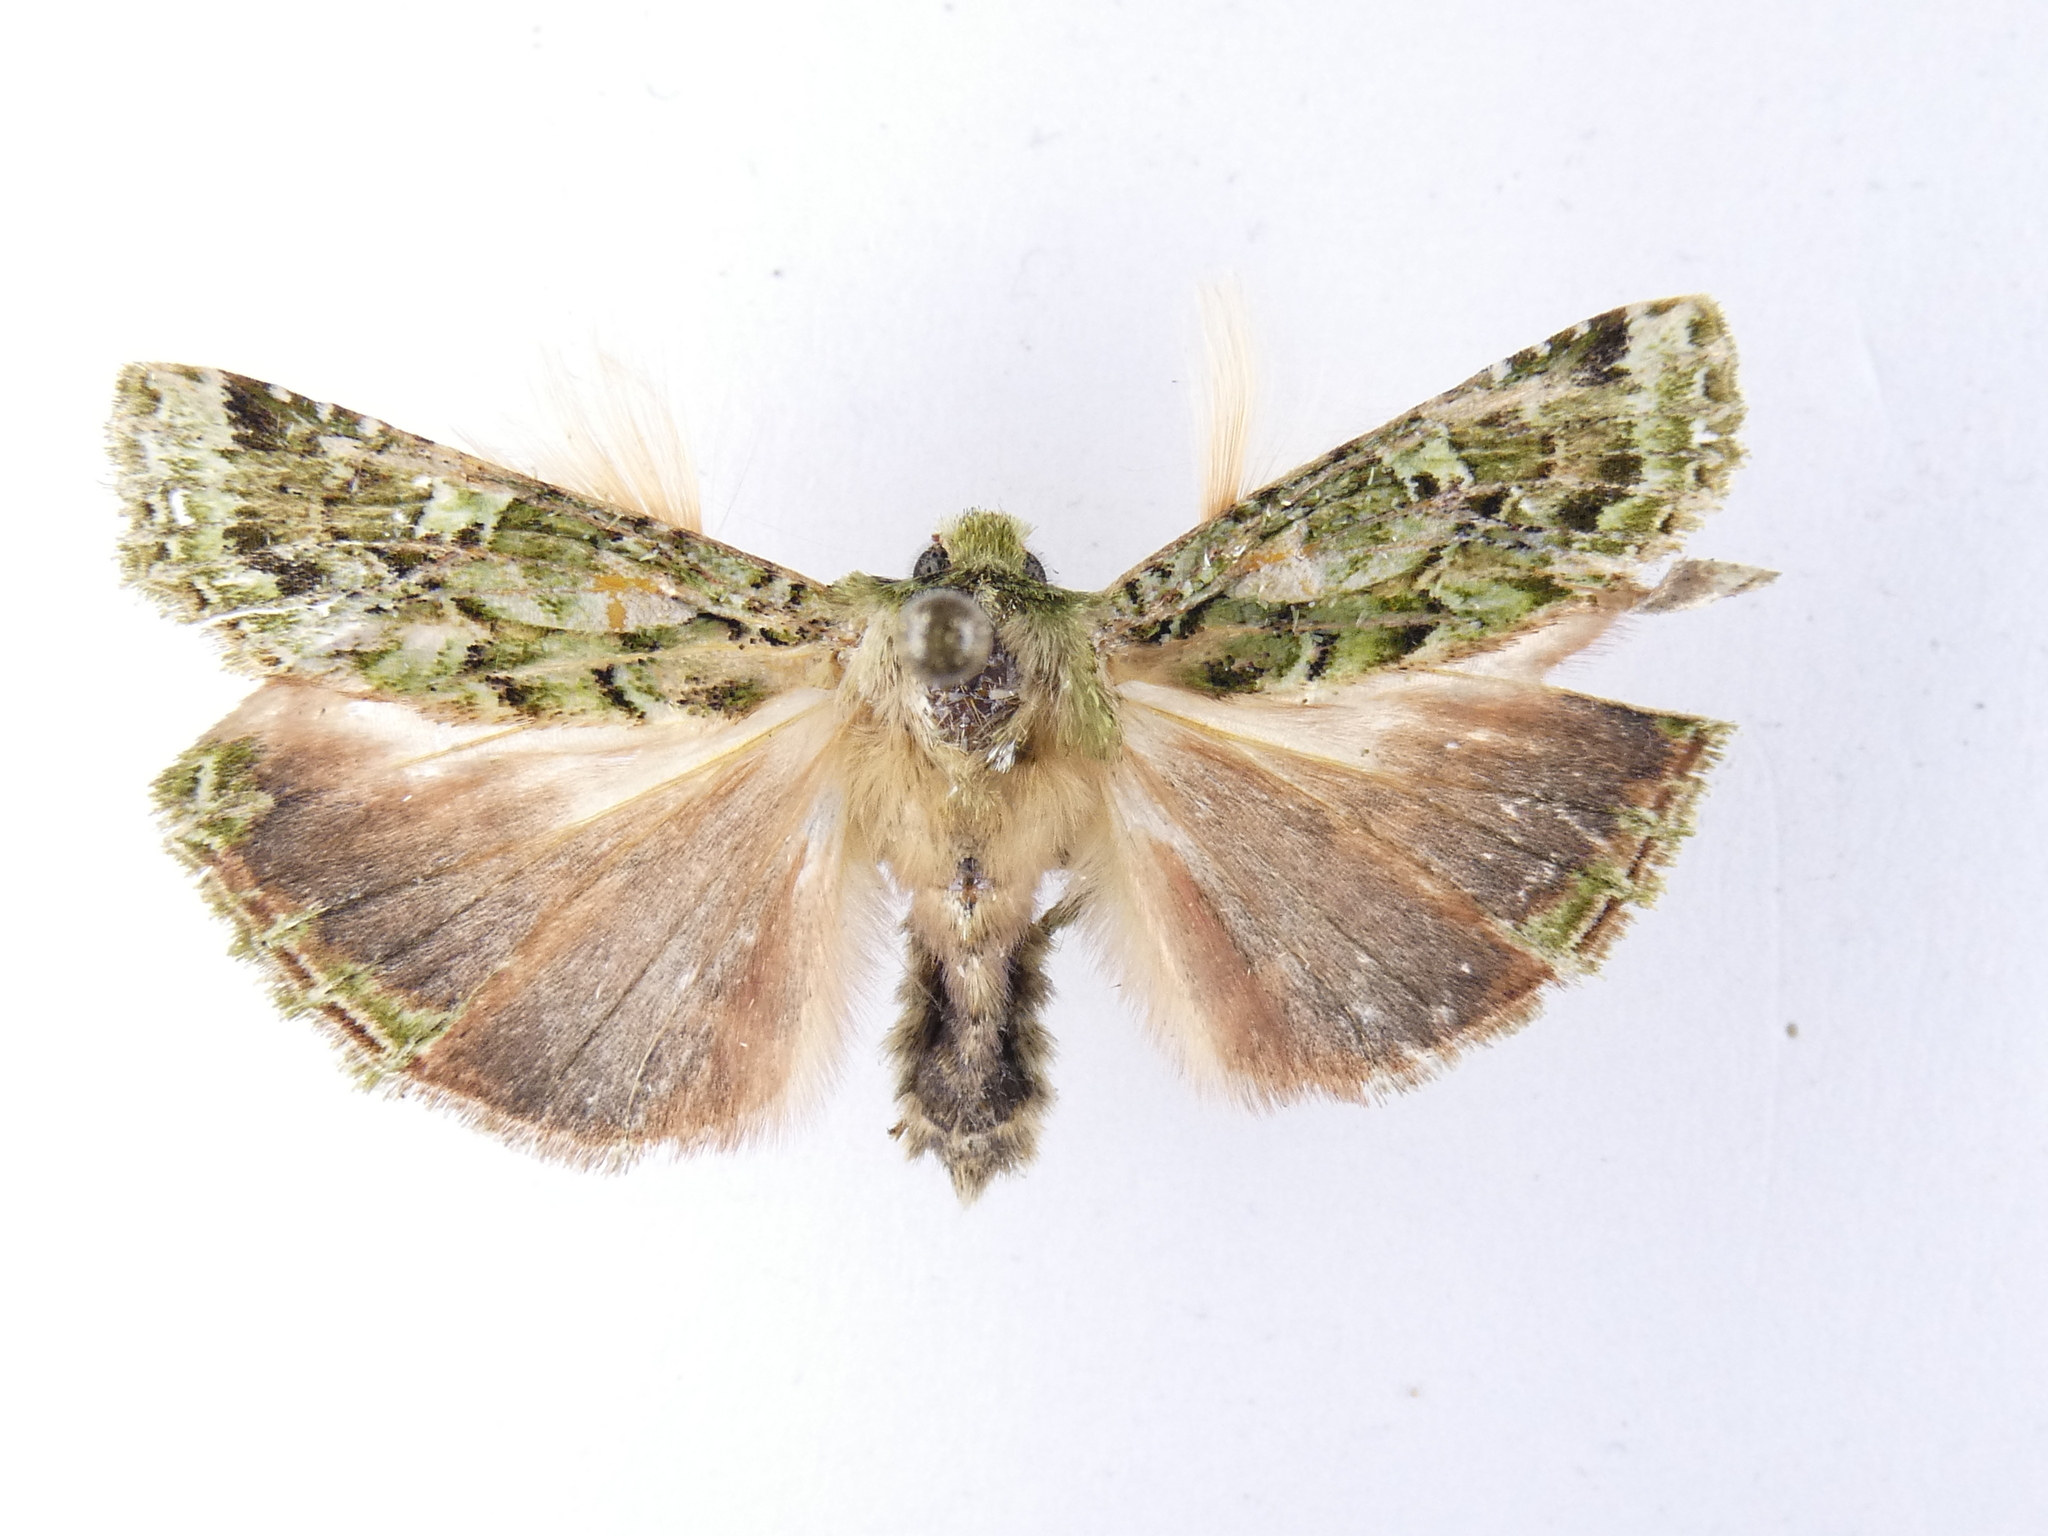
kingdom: Animalia
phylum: Arthropoda
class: Insecta
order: Lepidoptera
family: Noctuidae
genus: Feredayia
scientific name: Feredayia grammosa
